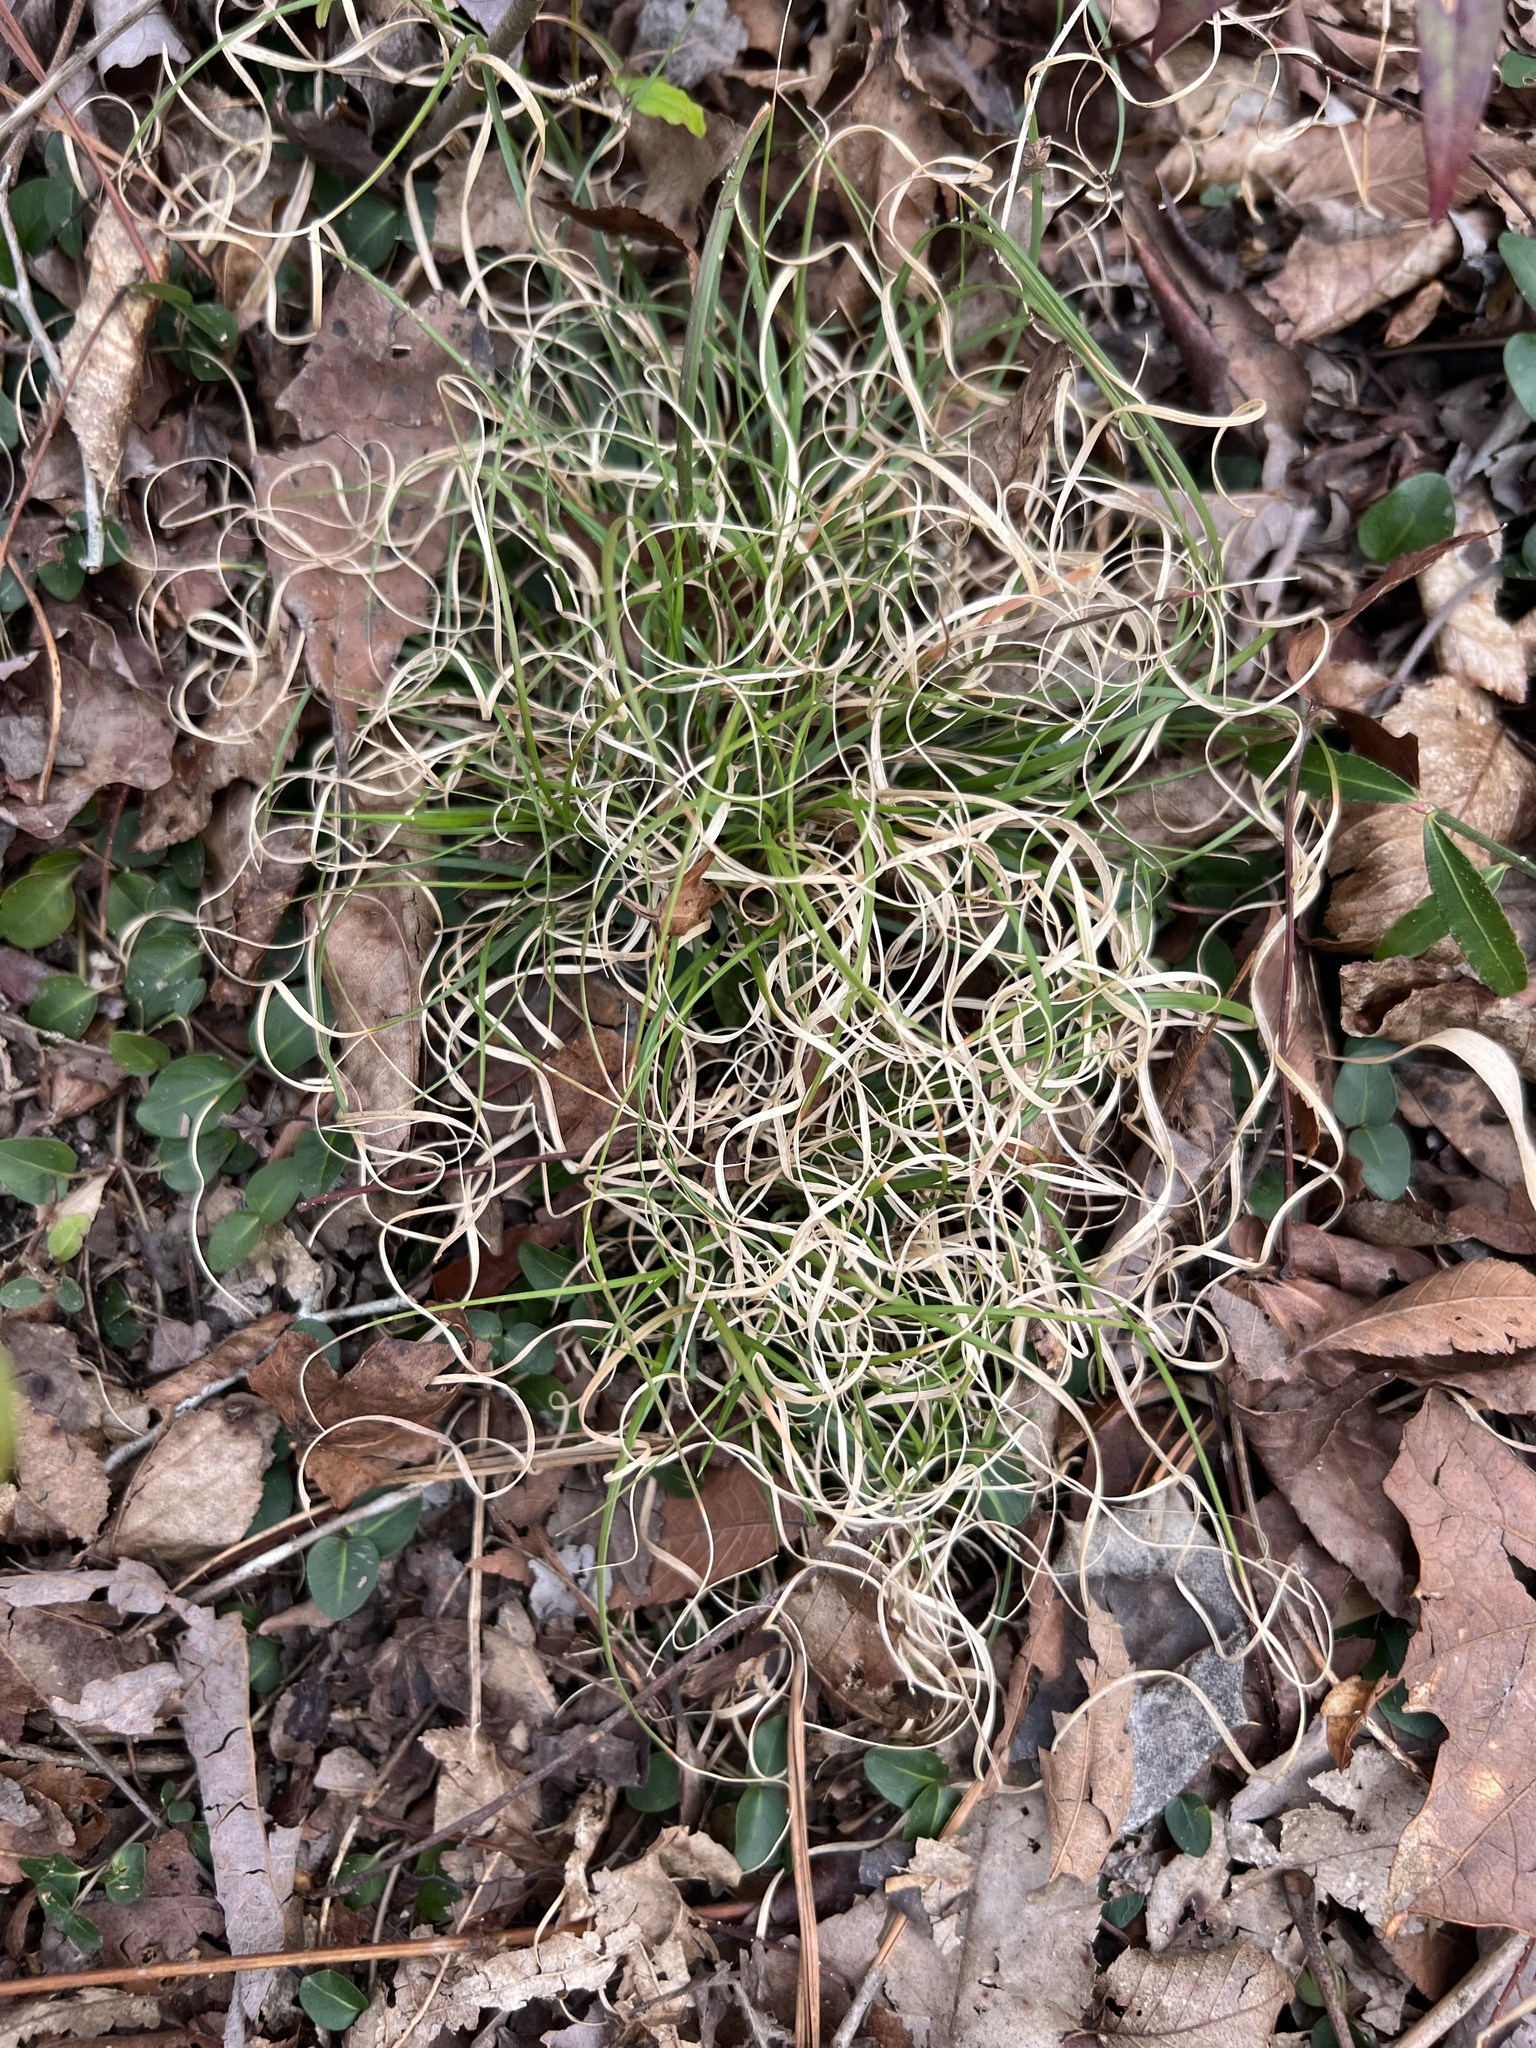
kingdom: Plantae
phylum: Tracheophyta
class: Liliopsida
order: Poales
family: Poaceae
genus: Danthonia
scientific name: Danthonia spicata
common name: Common wild oatgrass
